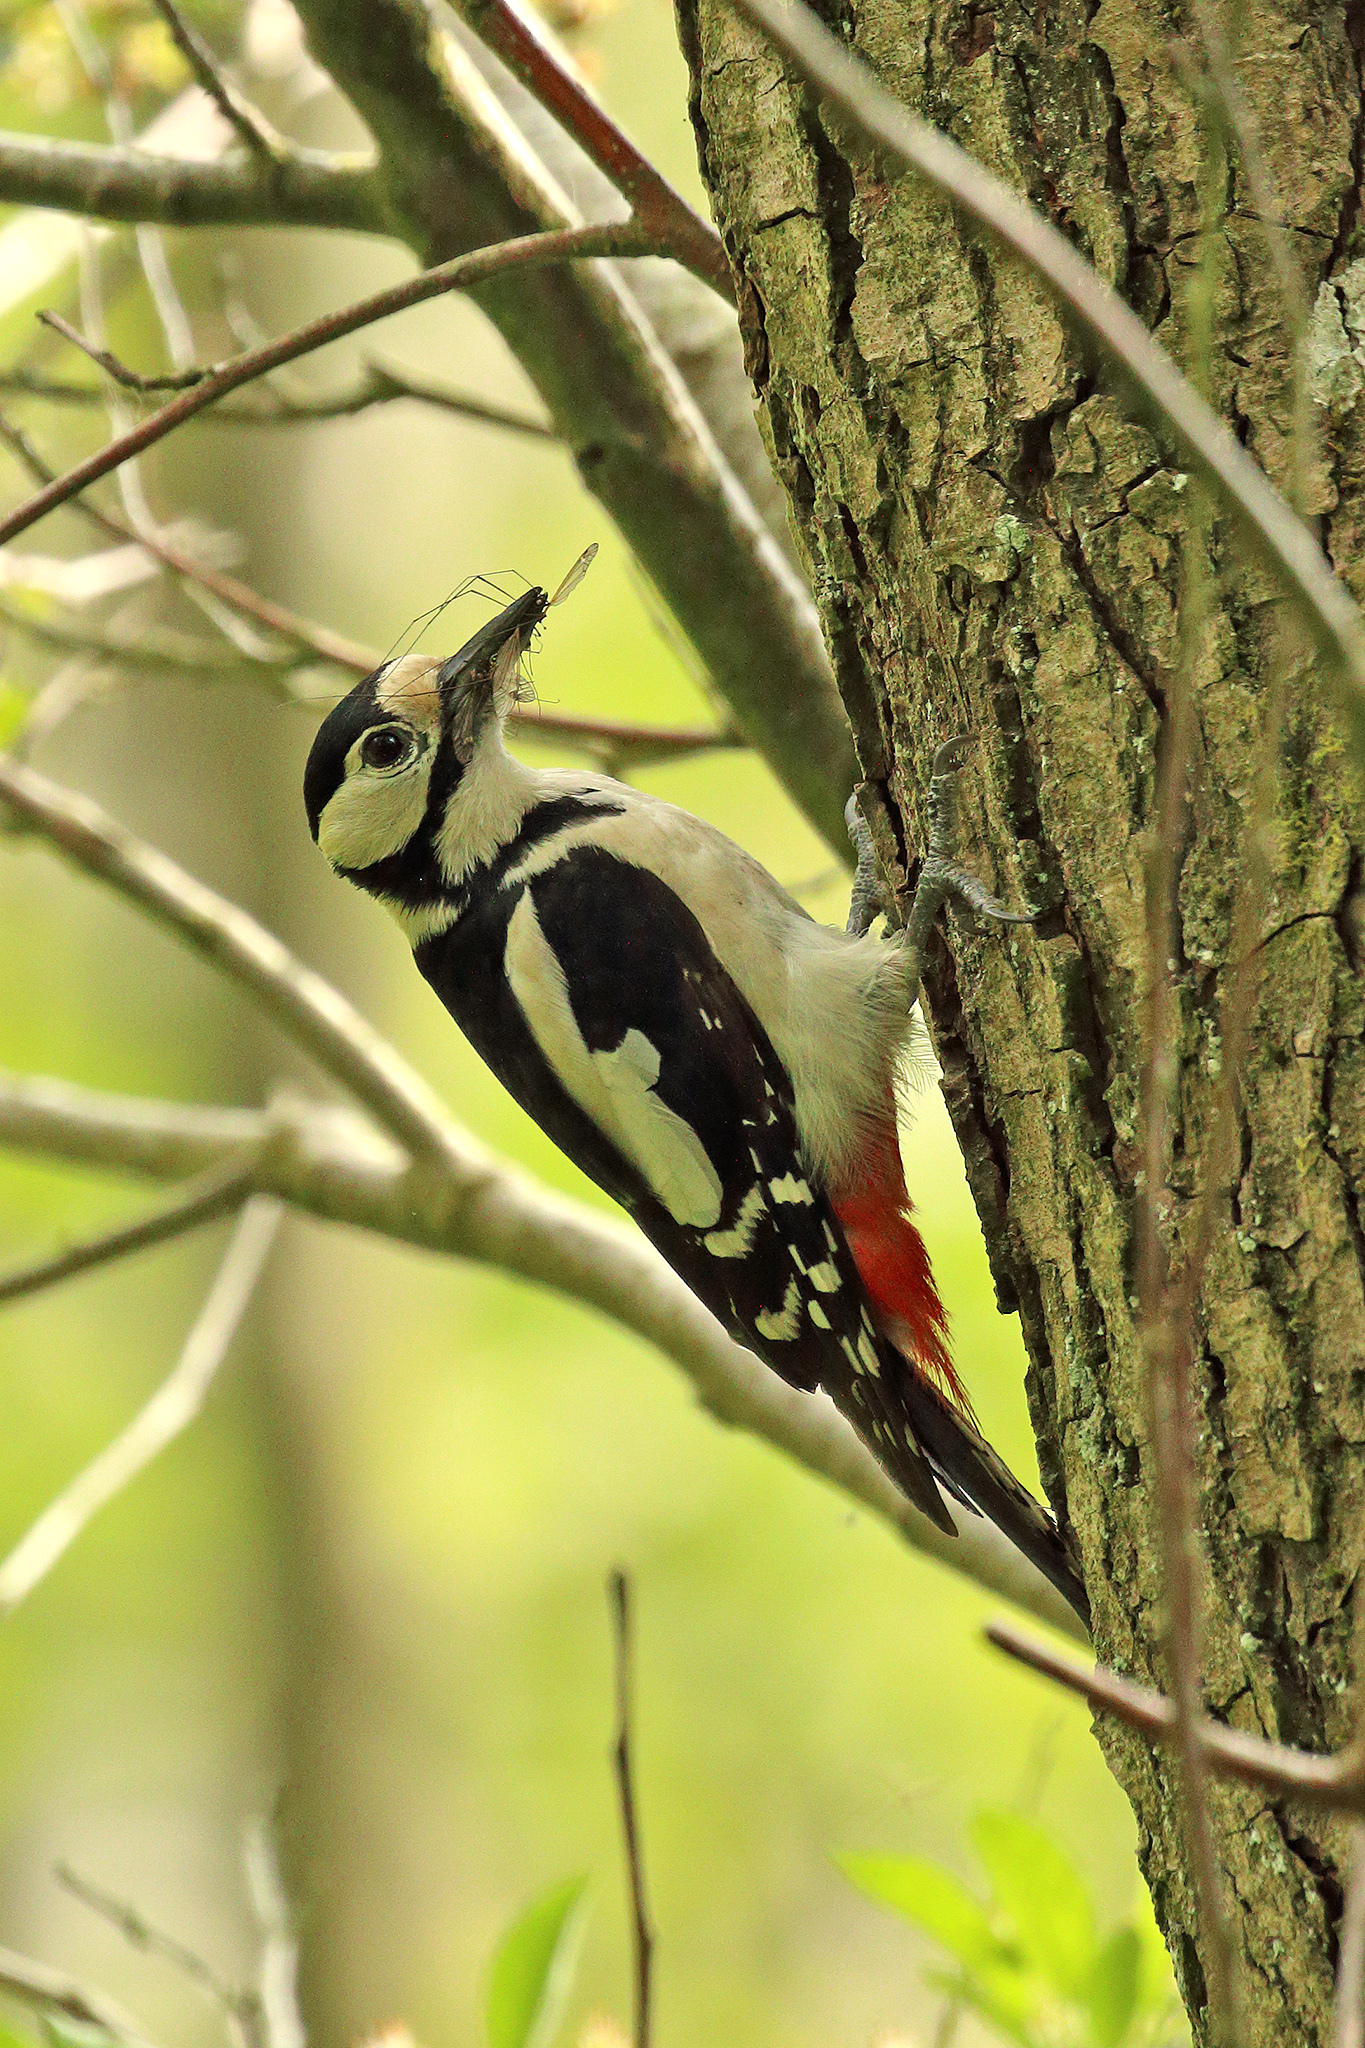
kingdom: Animalia
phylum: Chordata
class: Aves
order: Piciformes
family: Picidae
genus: Dendrocopos
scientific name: Dendrocopos major
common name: Great spotted woodpecker
